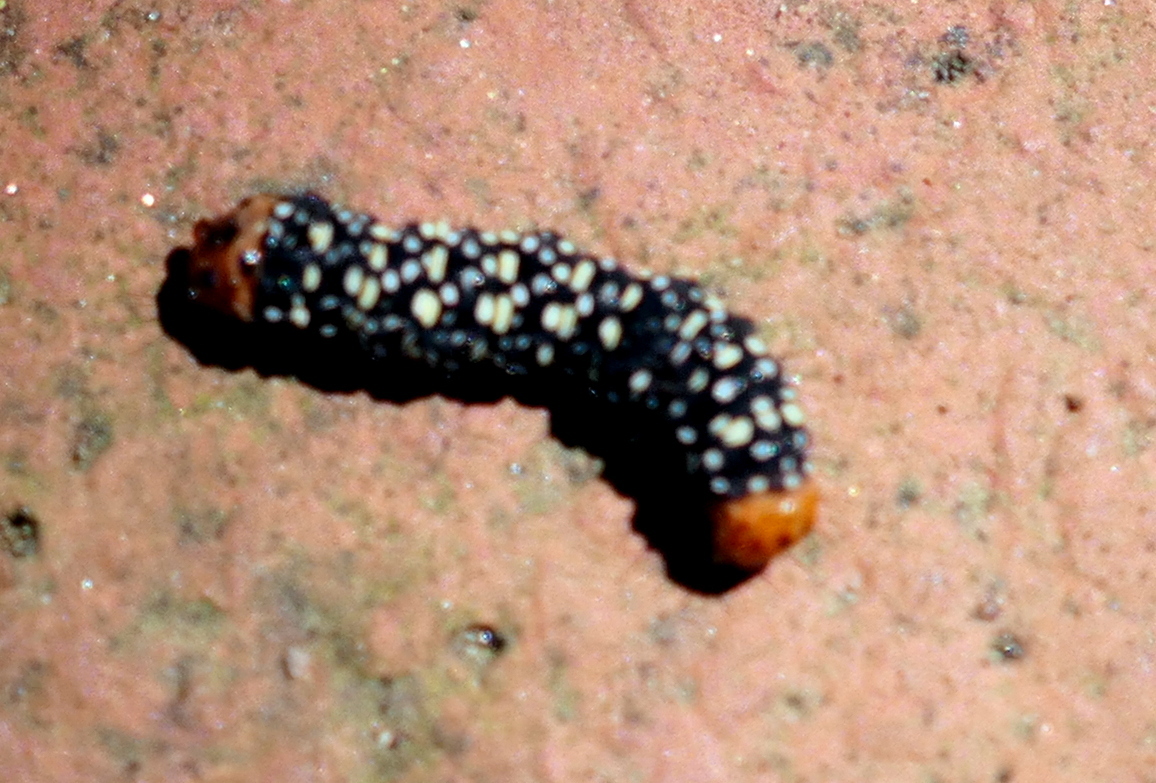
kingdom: Animalia
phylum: Arthropoda
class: Insecta
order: Lepidoptera
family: Noctuidae
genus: Xanthopastis
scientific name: Xanthopastis timais
